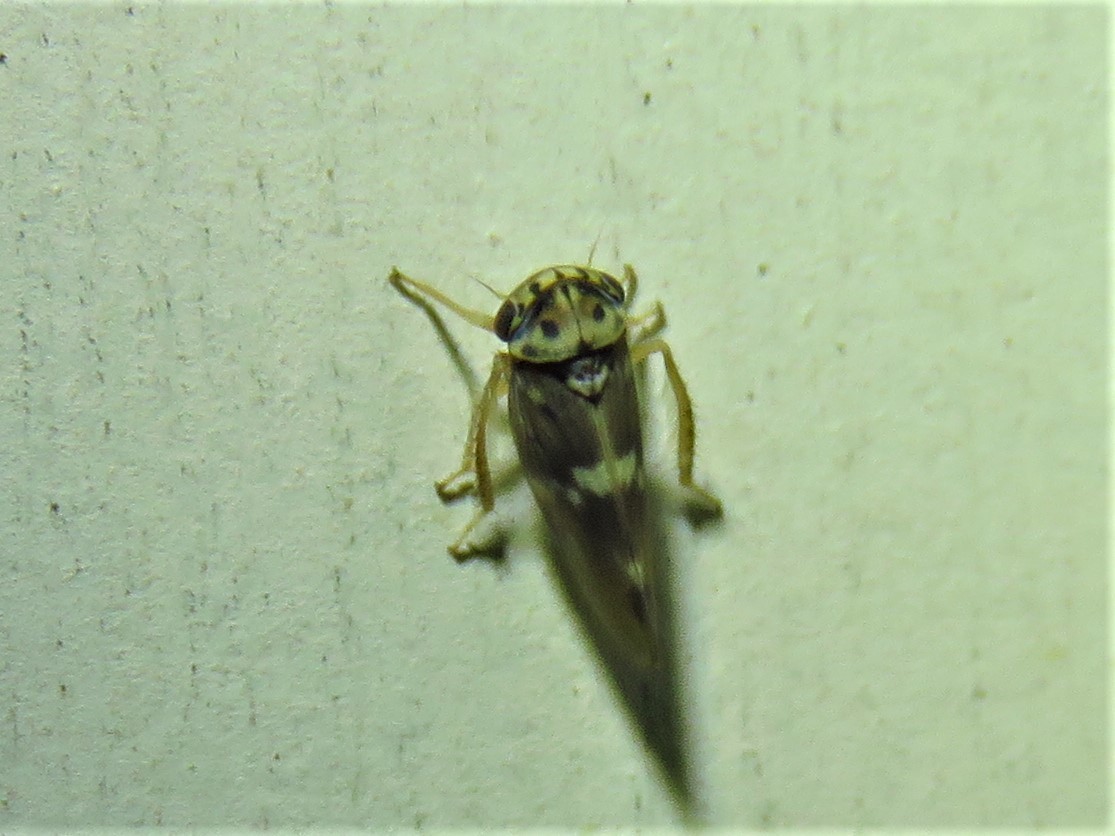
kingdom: Animalia
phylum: Arthropoda
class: Insecta
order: Hemiptera
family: Cicadellidae
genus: Agalliopsis
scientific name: Agalliopsis cervina
